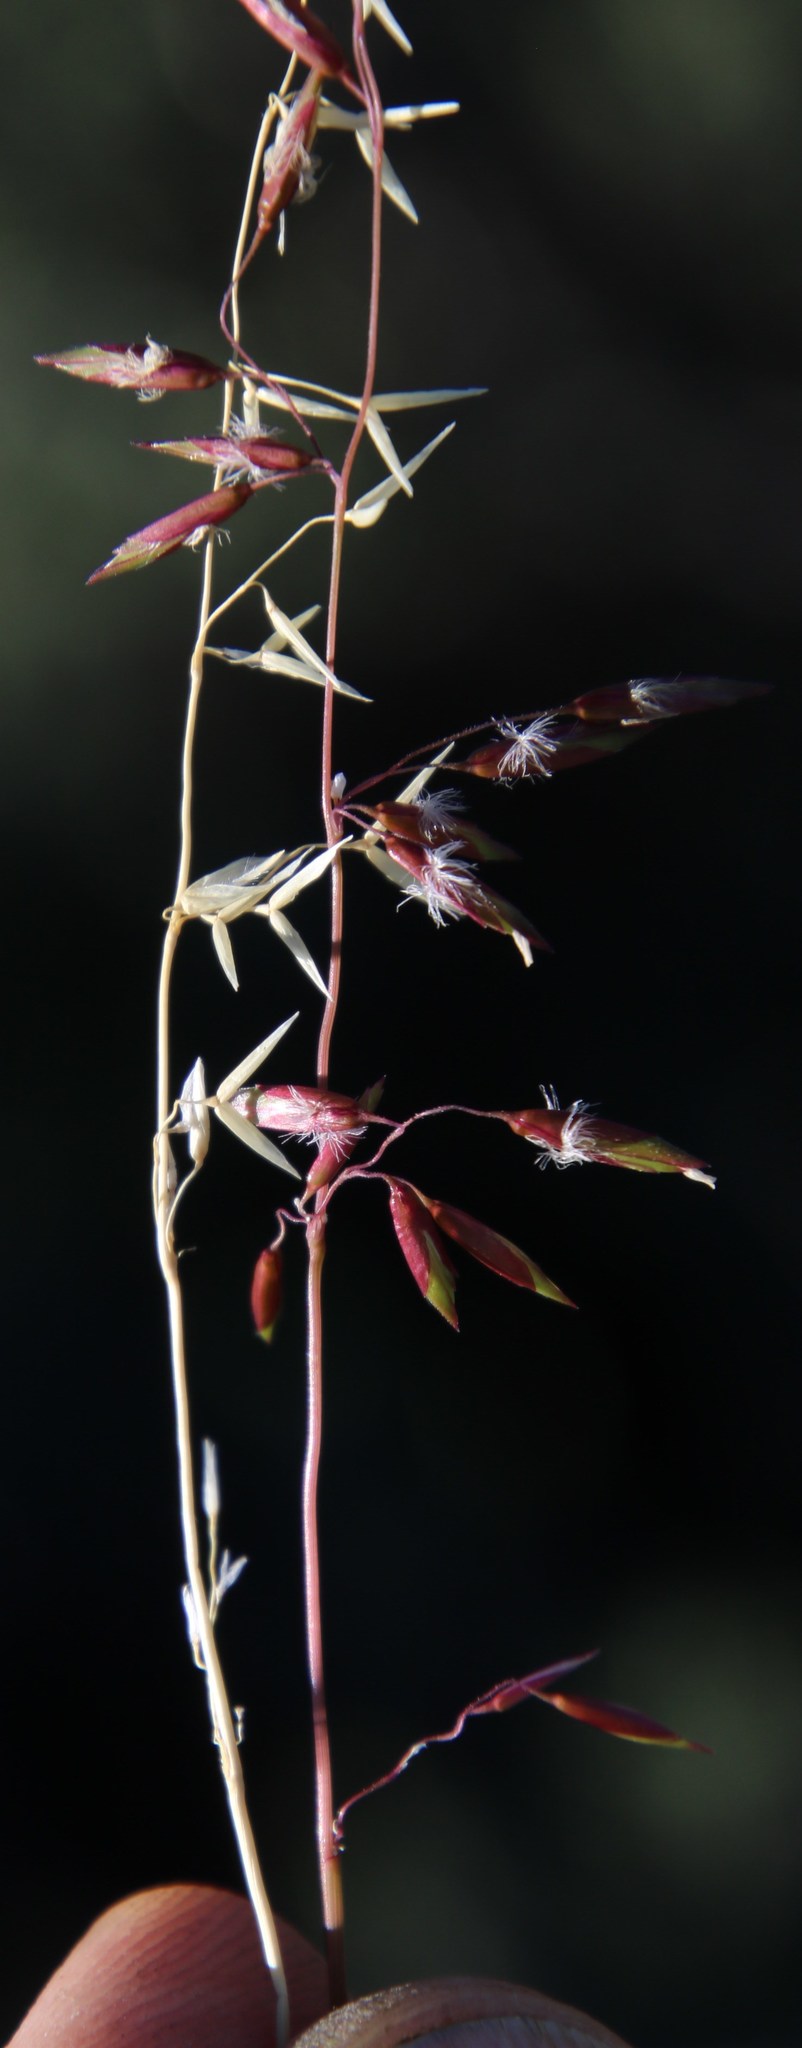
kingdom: Plantae
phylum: Tracheophyta
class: Liliopsida
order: Poales
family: Poaceae
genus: Ehrharta
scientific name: Ehrharta calycina
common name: Perennial veldtgrass
